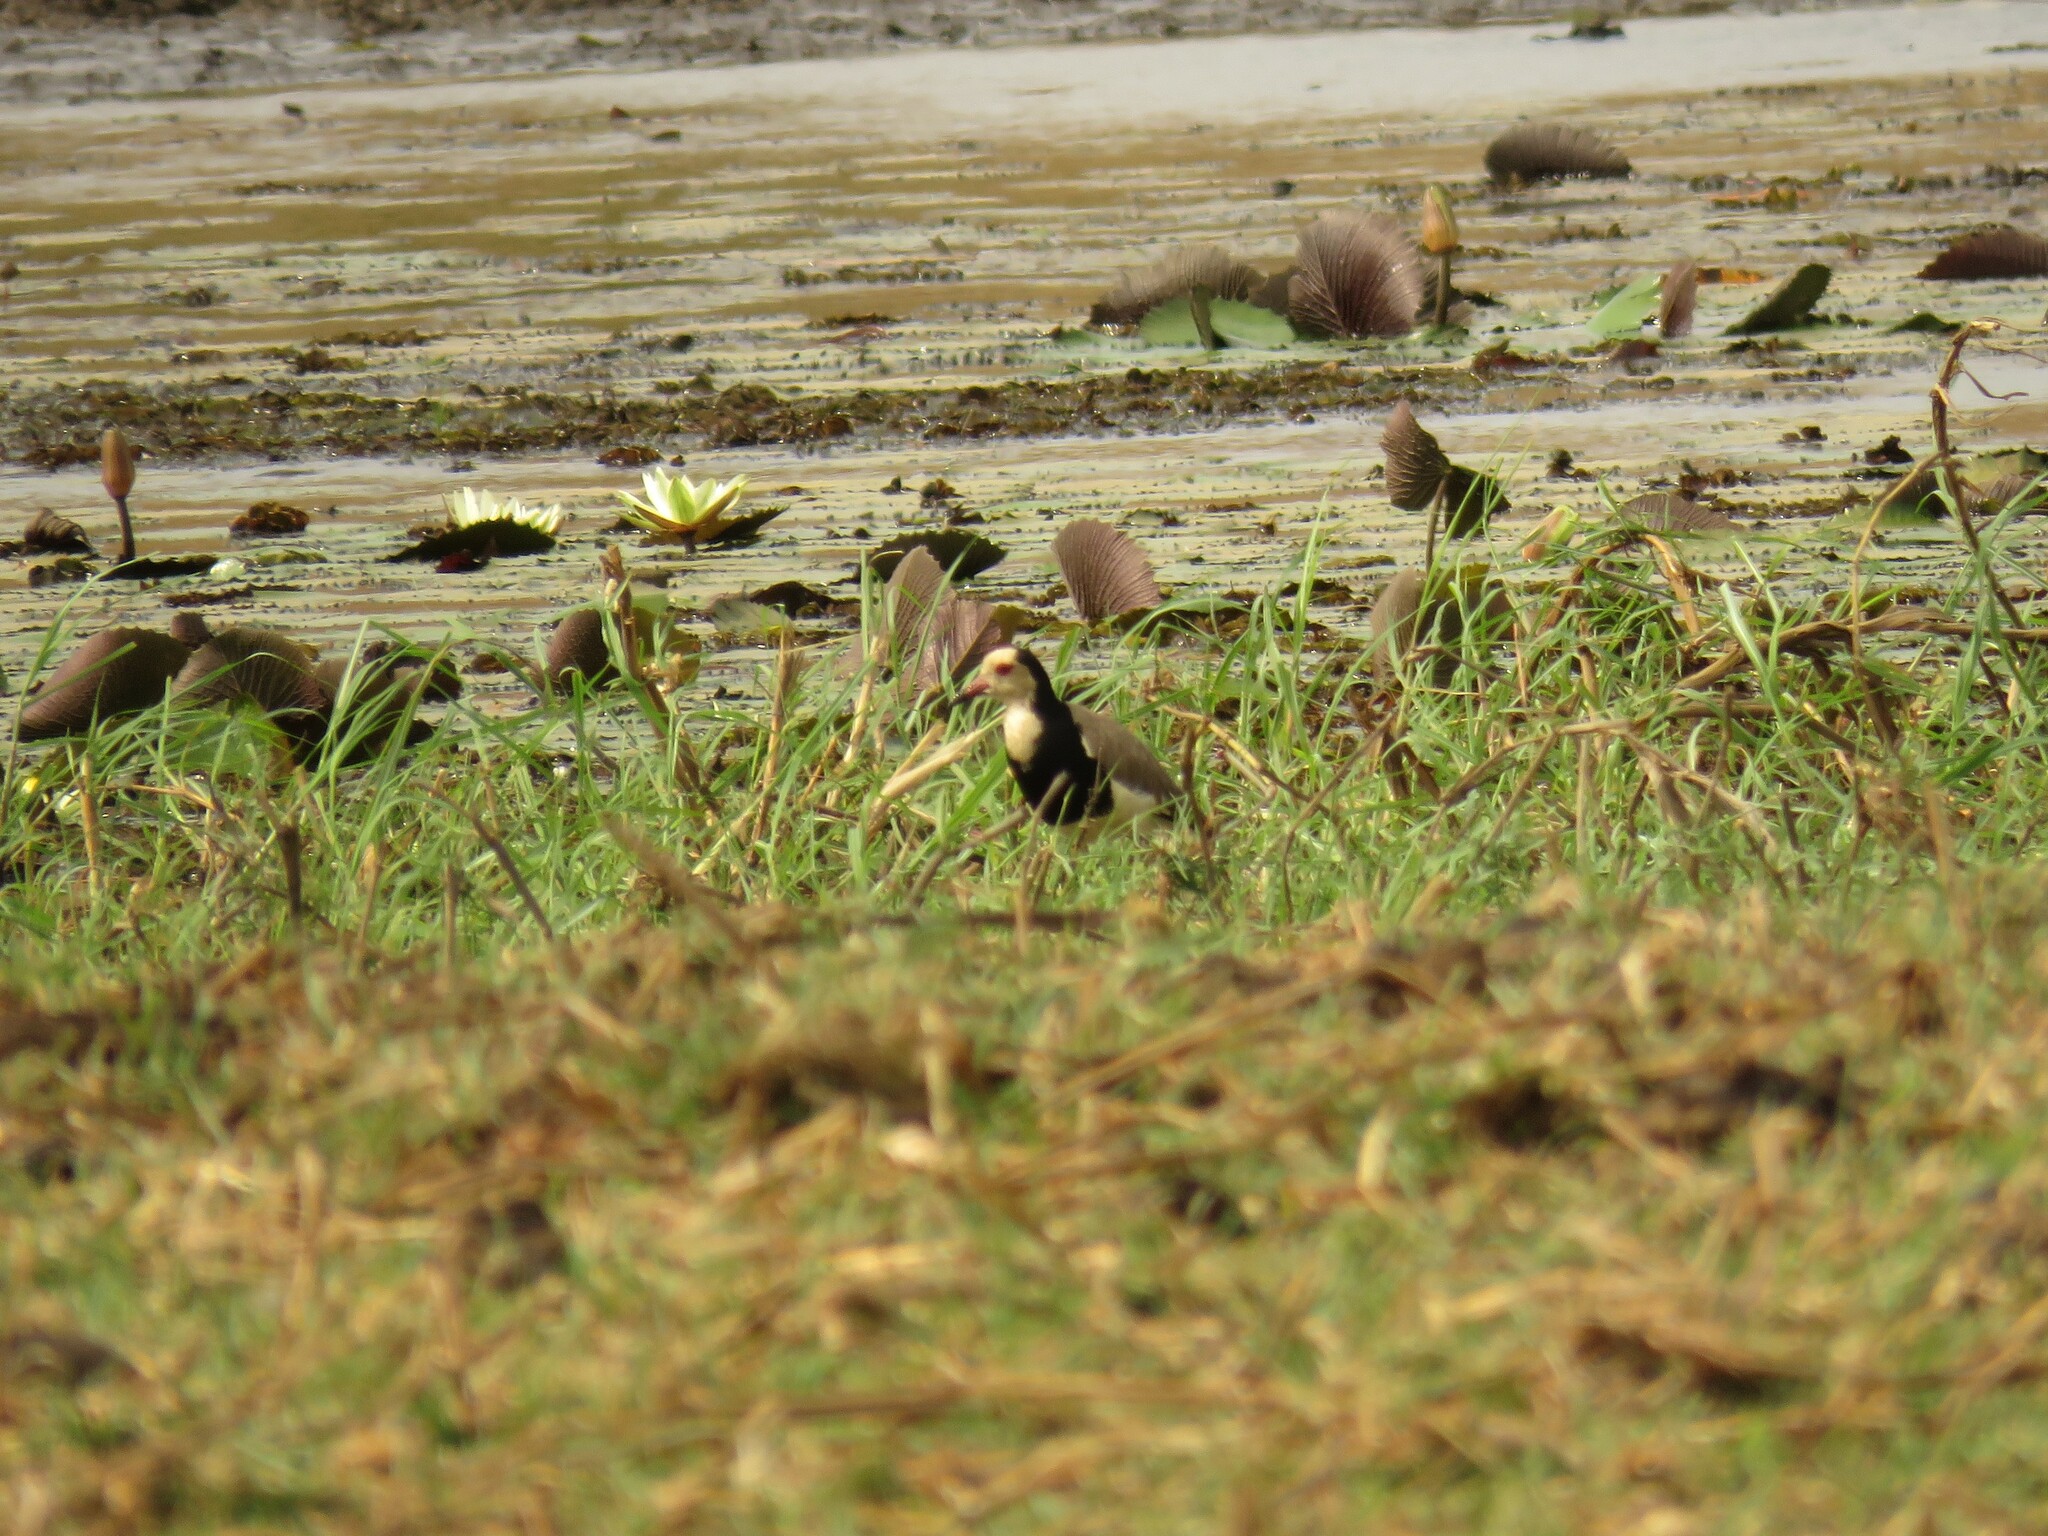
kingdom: Animalia
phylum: Chordata
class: Aves
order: Charadriiformes
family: Charadriidae
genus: Vanellus
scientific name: Vanellus crassirostris
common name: Long-toed lapwing
